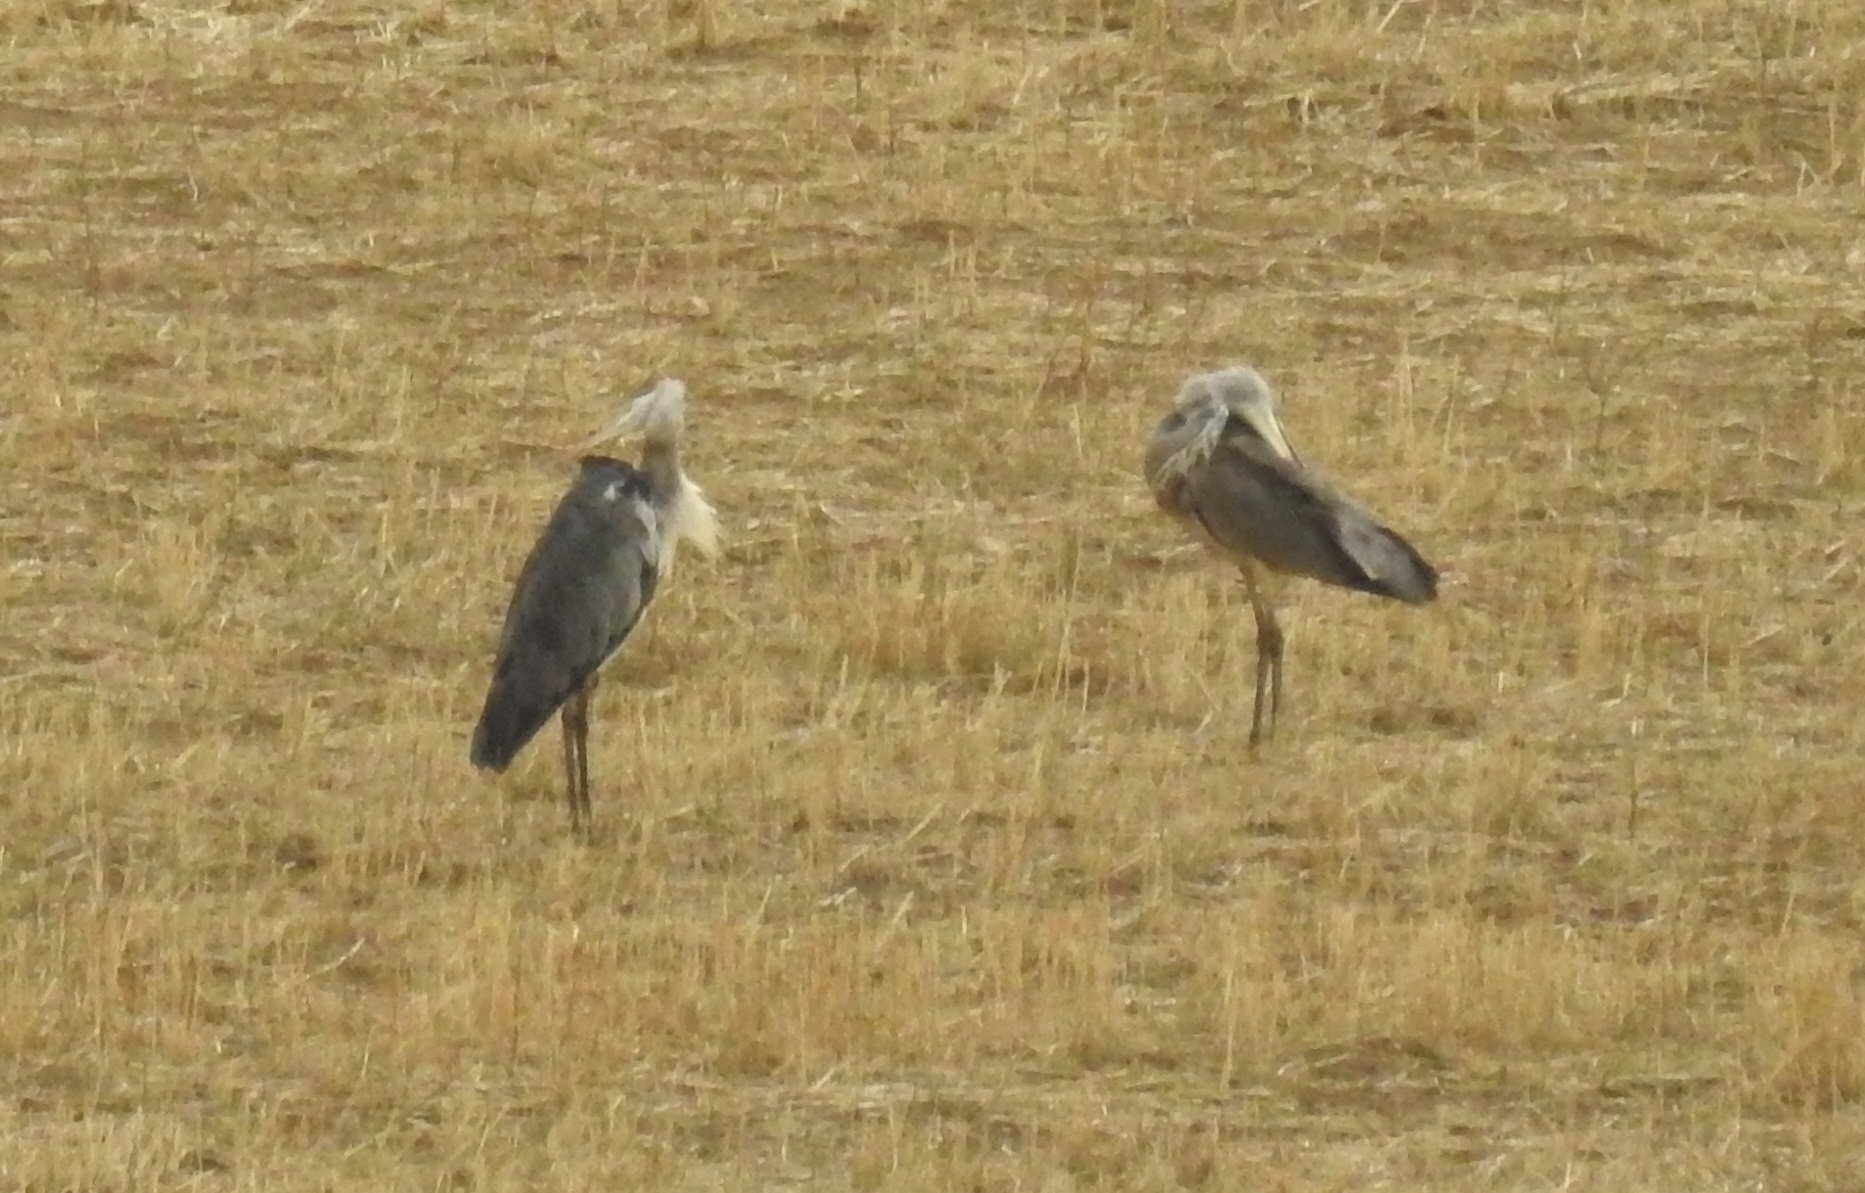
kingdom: Animalia
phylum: Chordata
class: Aves
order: Pelecaniformes
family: Ardeidae
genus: Ardea
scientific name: Ardea cinerea
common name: Grey heron
